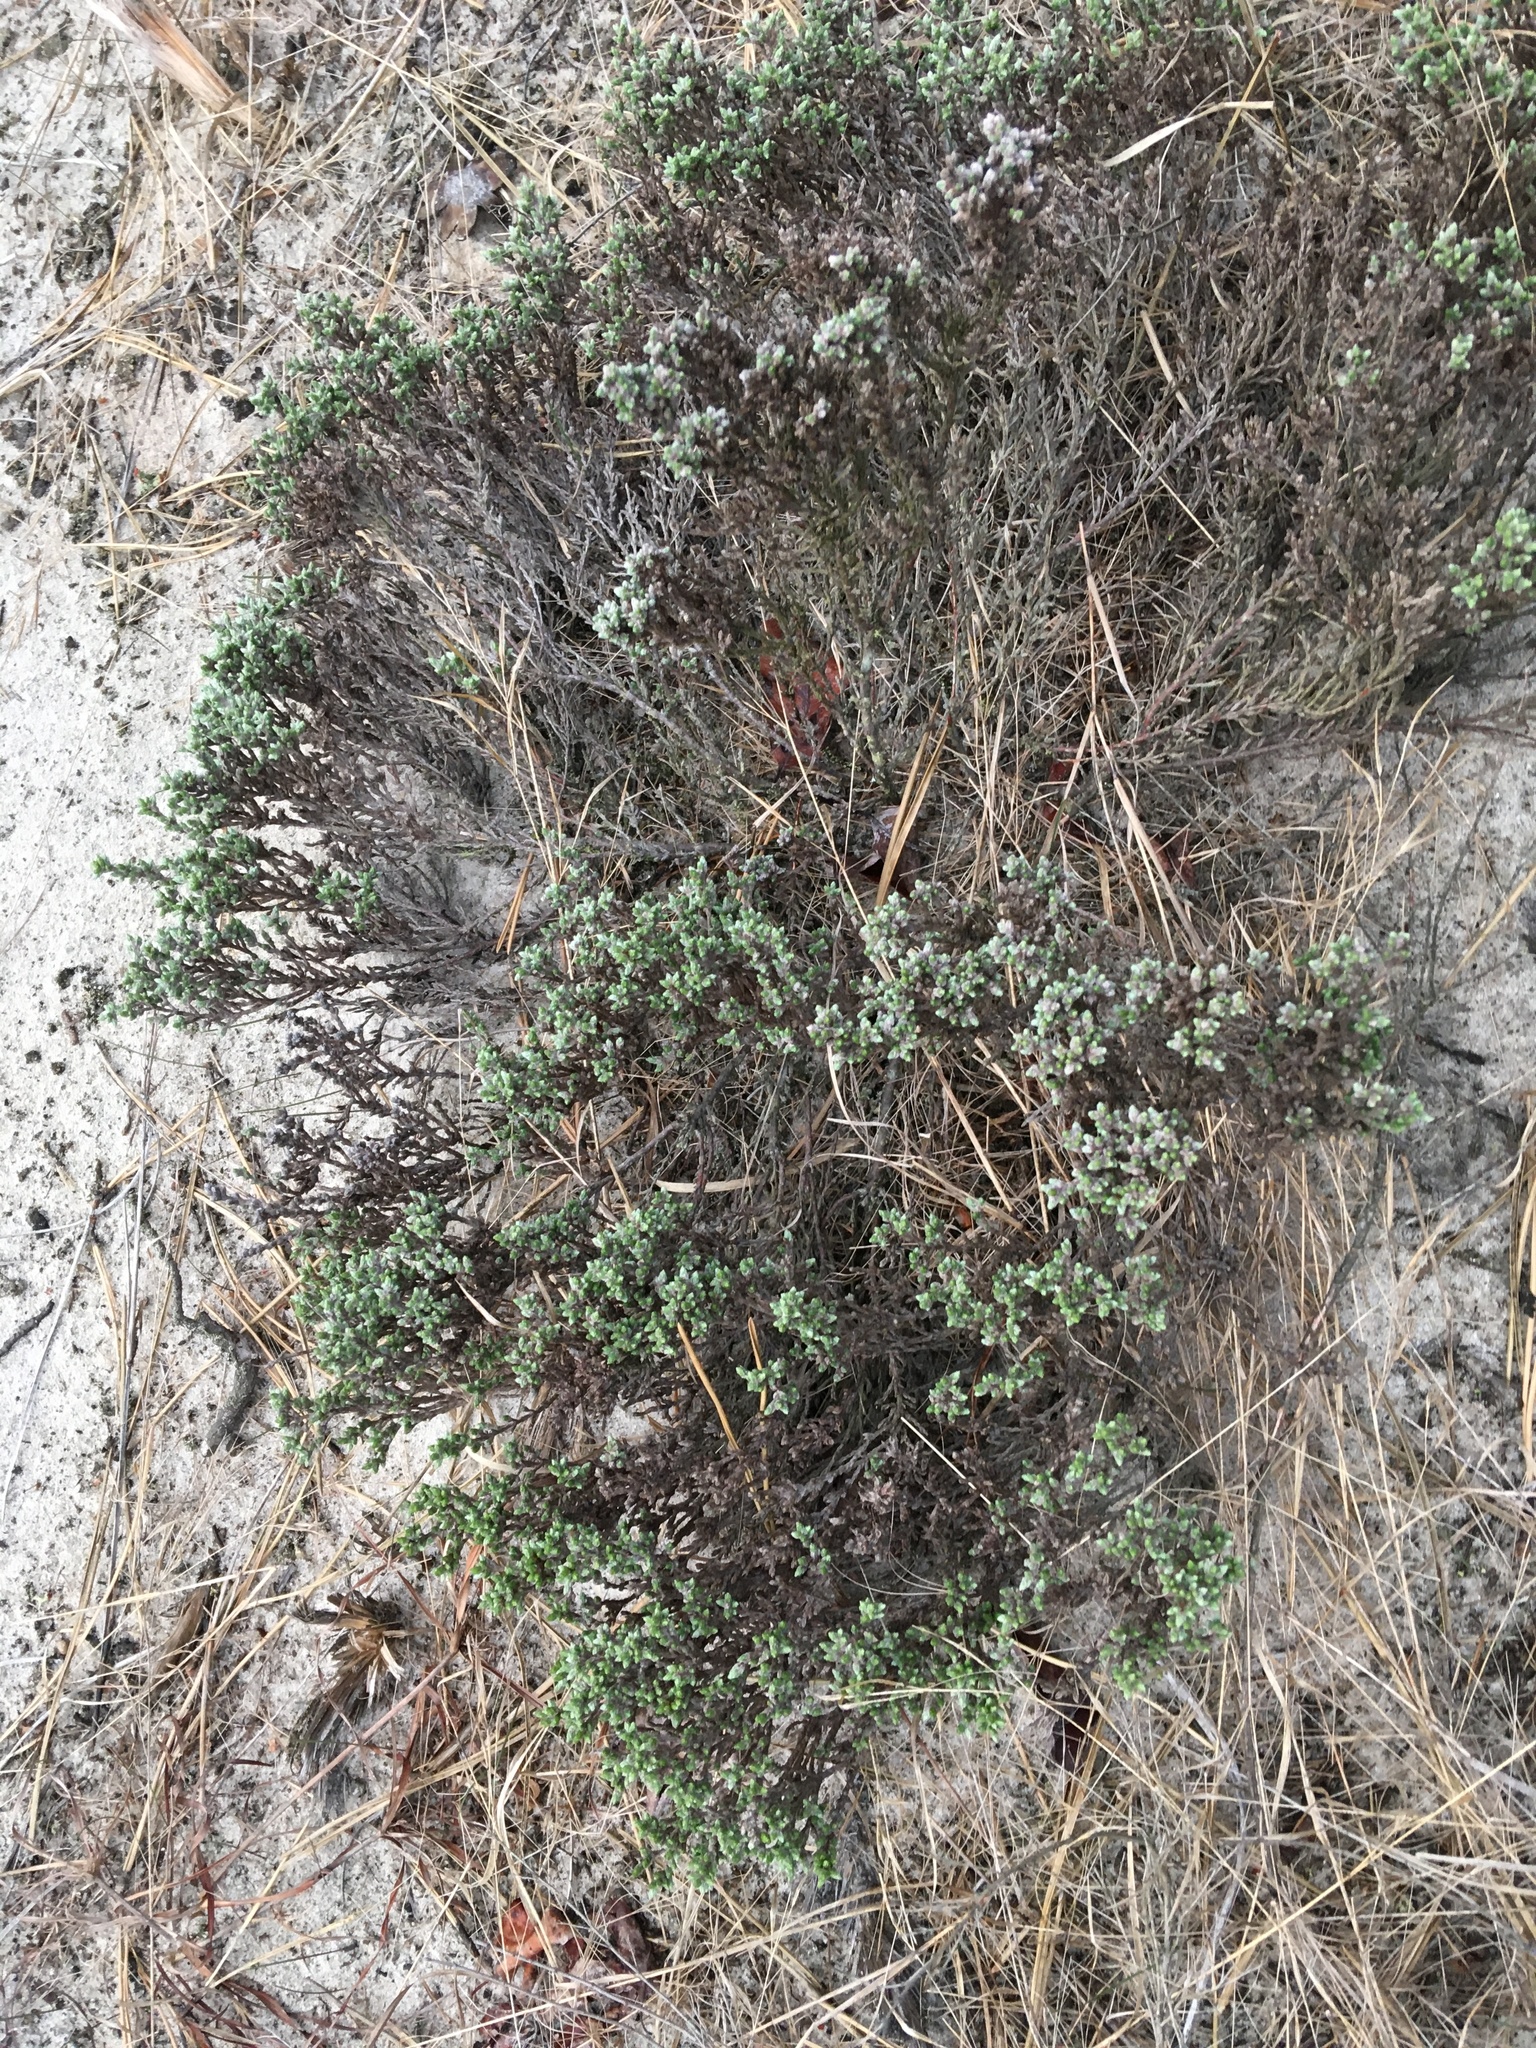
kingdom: Plantae
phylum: Tracheophyta
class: Magnoliopsida
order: Malvales
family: Cistaceae
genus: Hudsonia
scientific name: Hudsonia tomentosa
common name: Beach-heath
